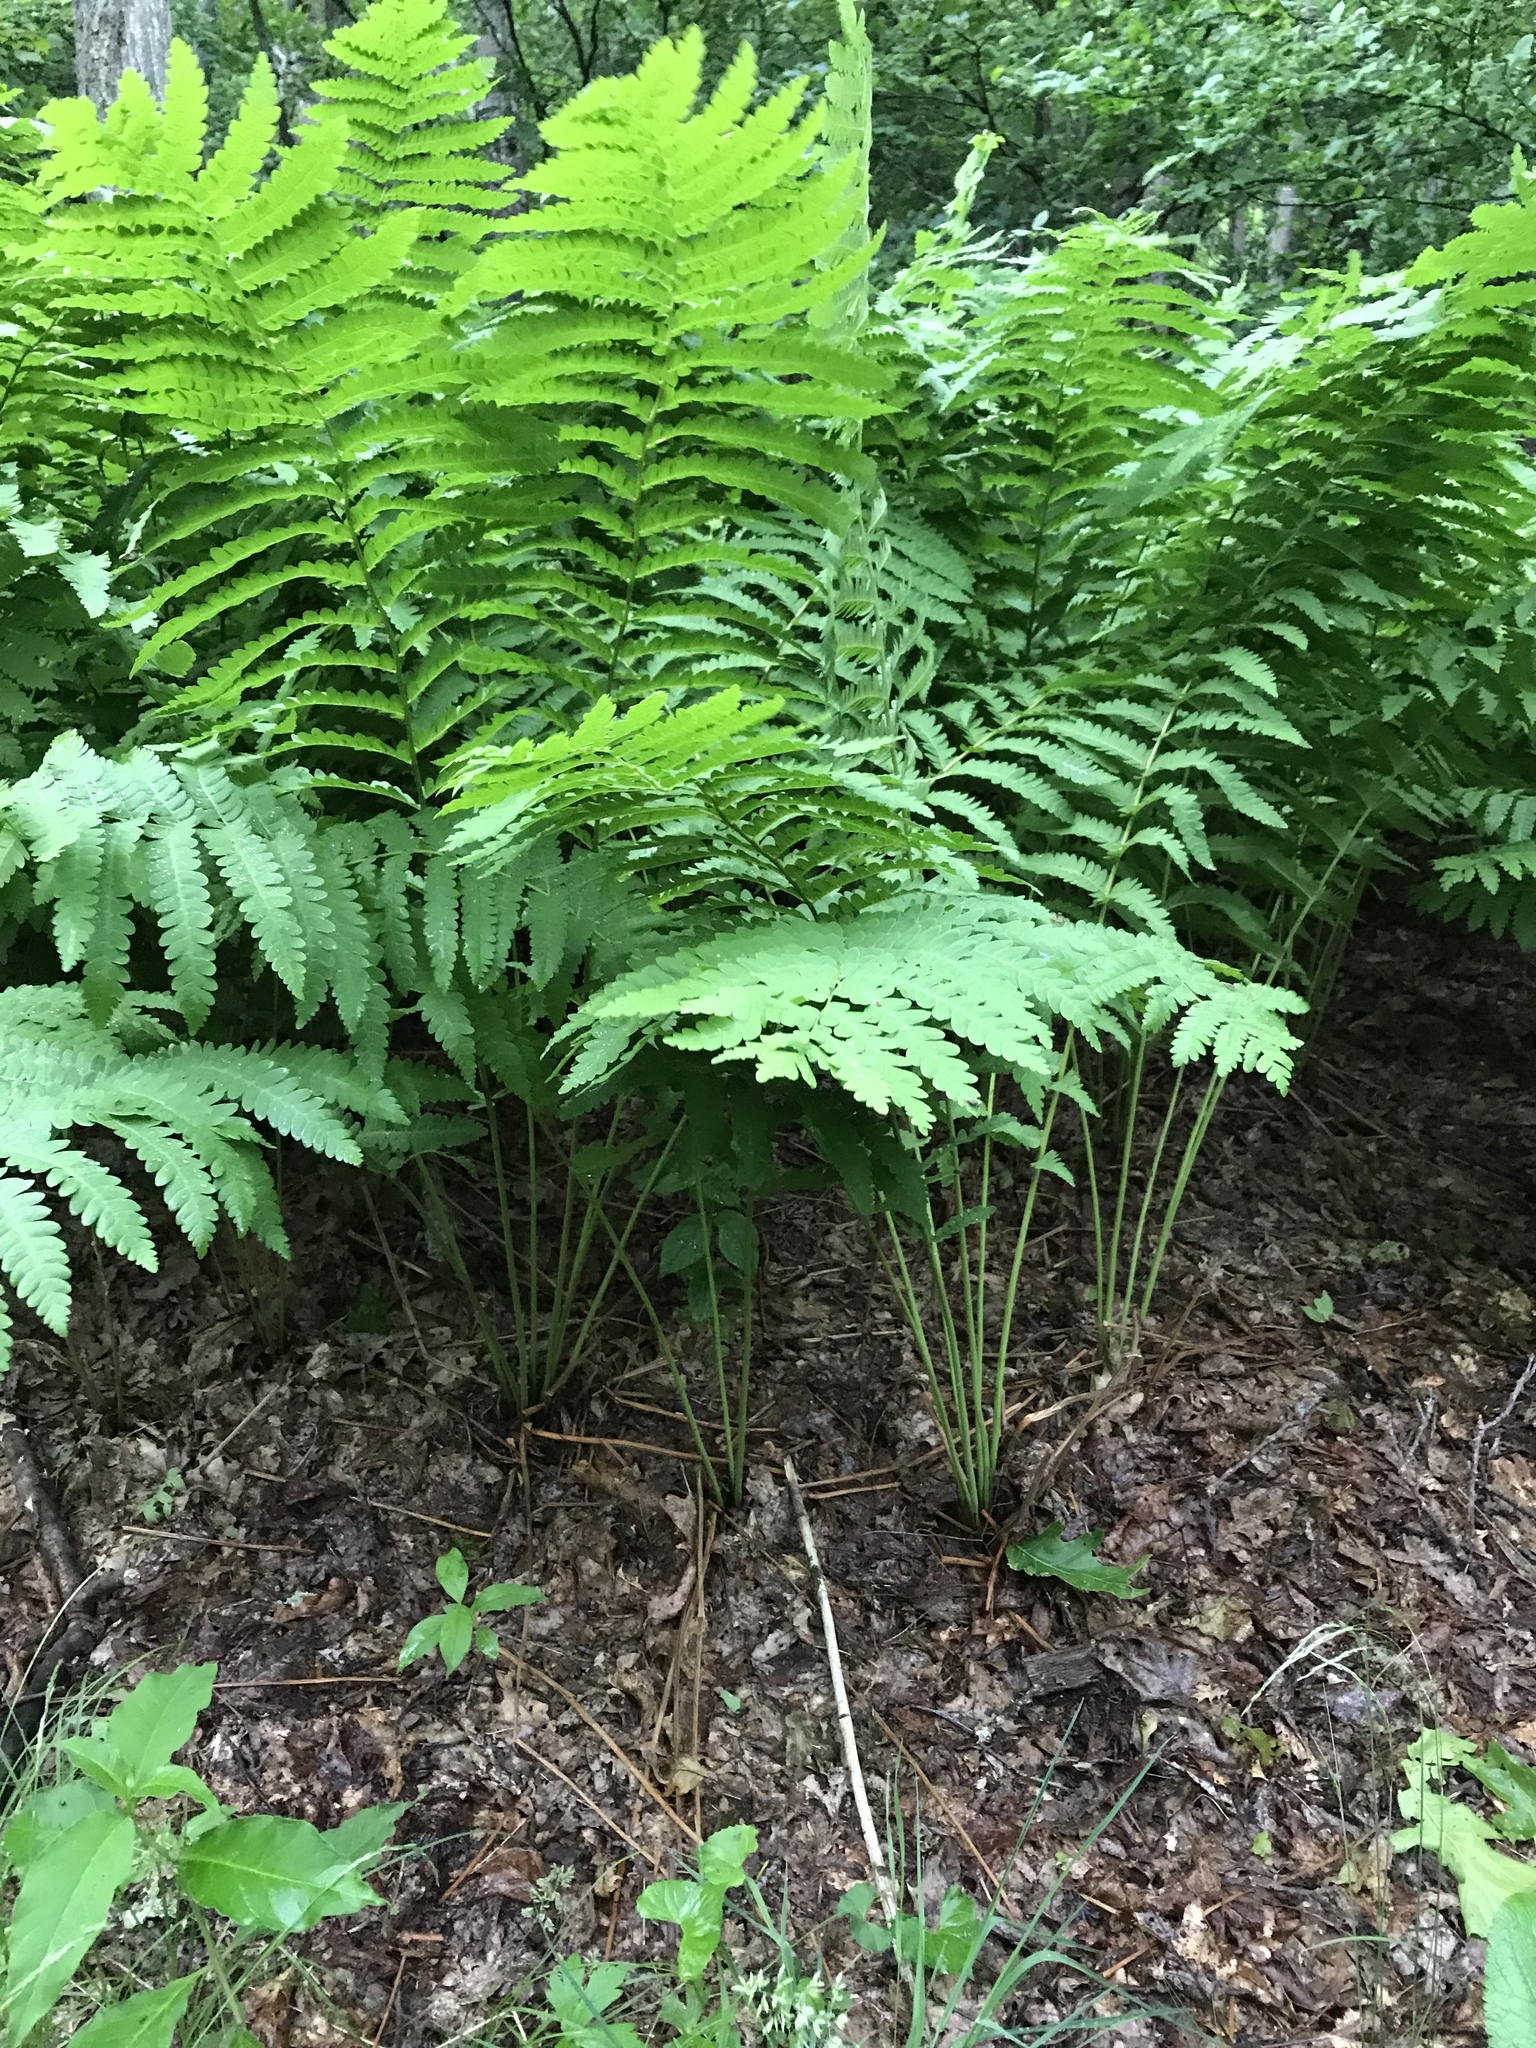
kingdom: Plantae
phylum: Tracheophyta
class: Polypodiopsida
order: Osmundales
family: Osmundaceae
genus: Claytosmunda
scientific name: Claytosmunda claytoniana
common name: Clayton's fern
